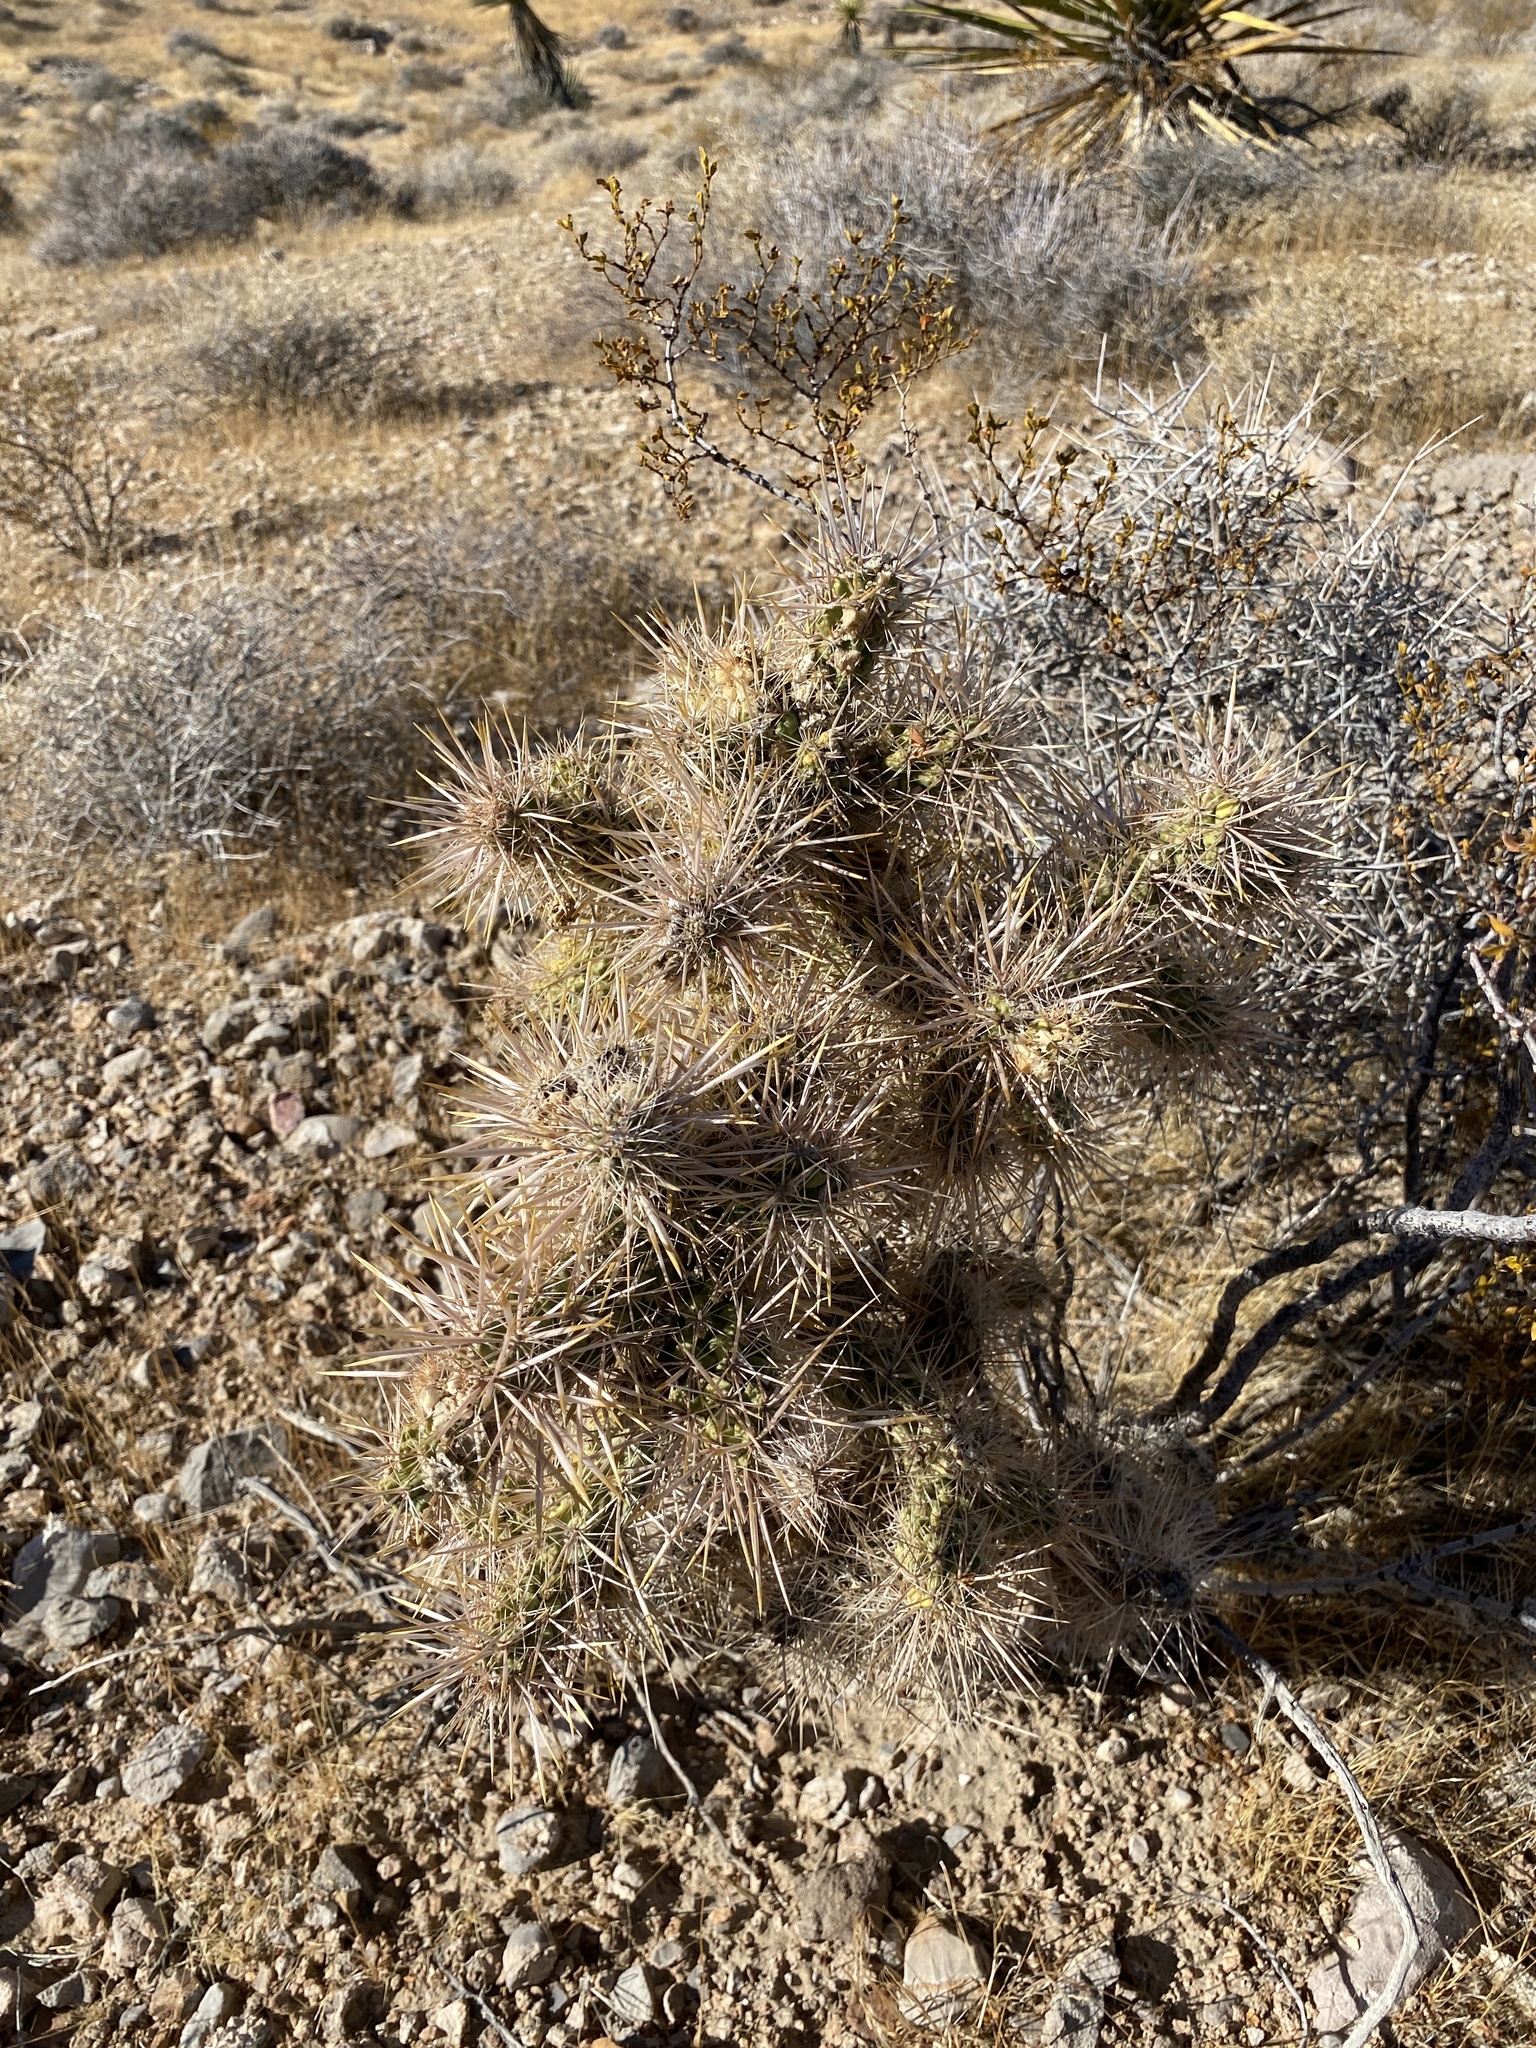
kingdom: Plantae
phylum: Tracheophyta
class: Magnoliopsida
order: Caryophyllales
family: Cactaceae
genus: Cylindropuntia
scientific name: Cylindropuntia echinocarpa
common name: Ground cholla
